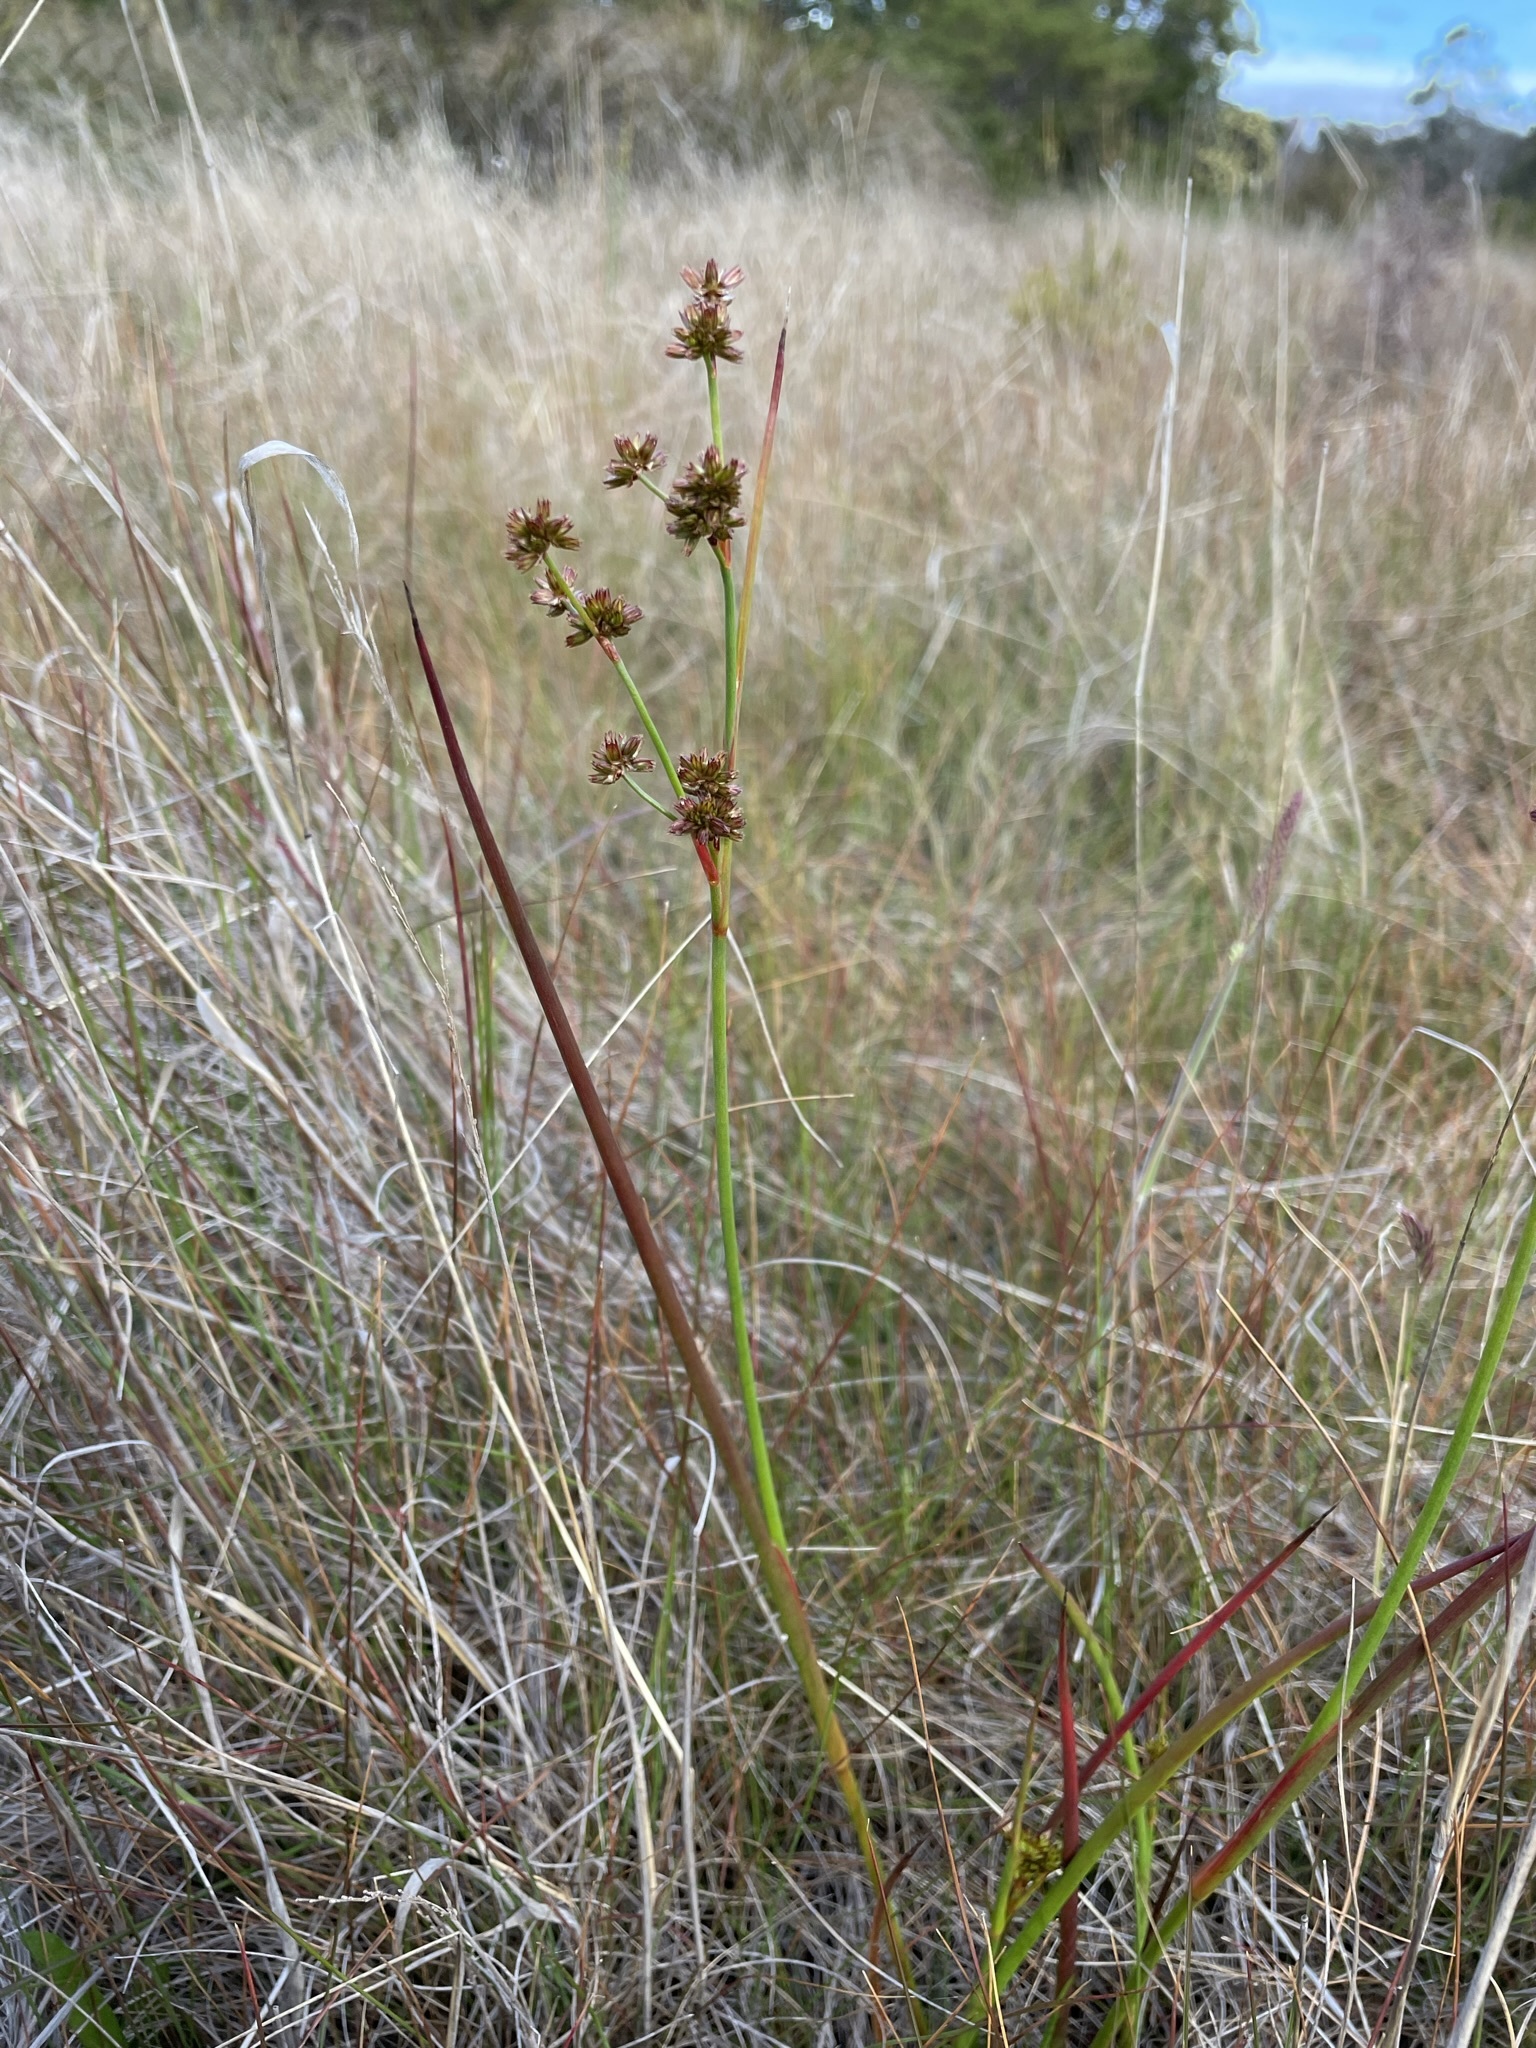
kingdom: Plantae
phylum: Tracheophyta
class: Liliopsida
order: Poales
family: Juncaceae
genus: Juncus
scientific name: Juncus holoschoenus
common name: Joint-leaf rush
